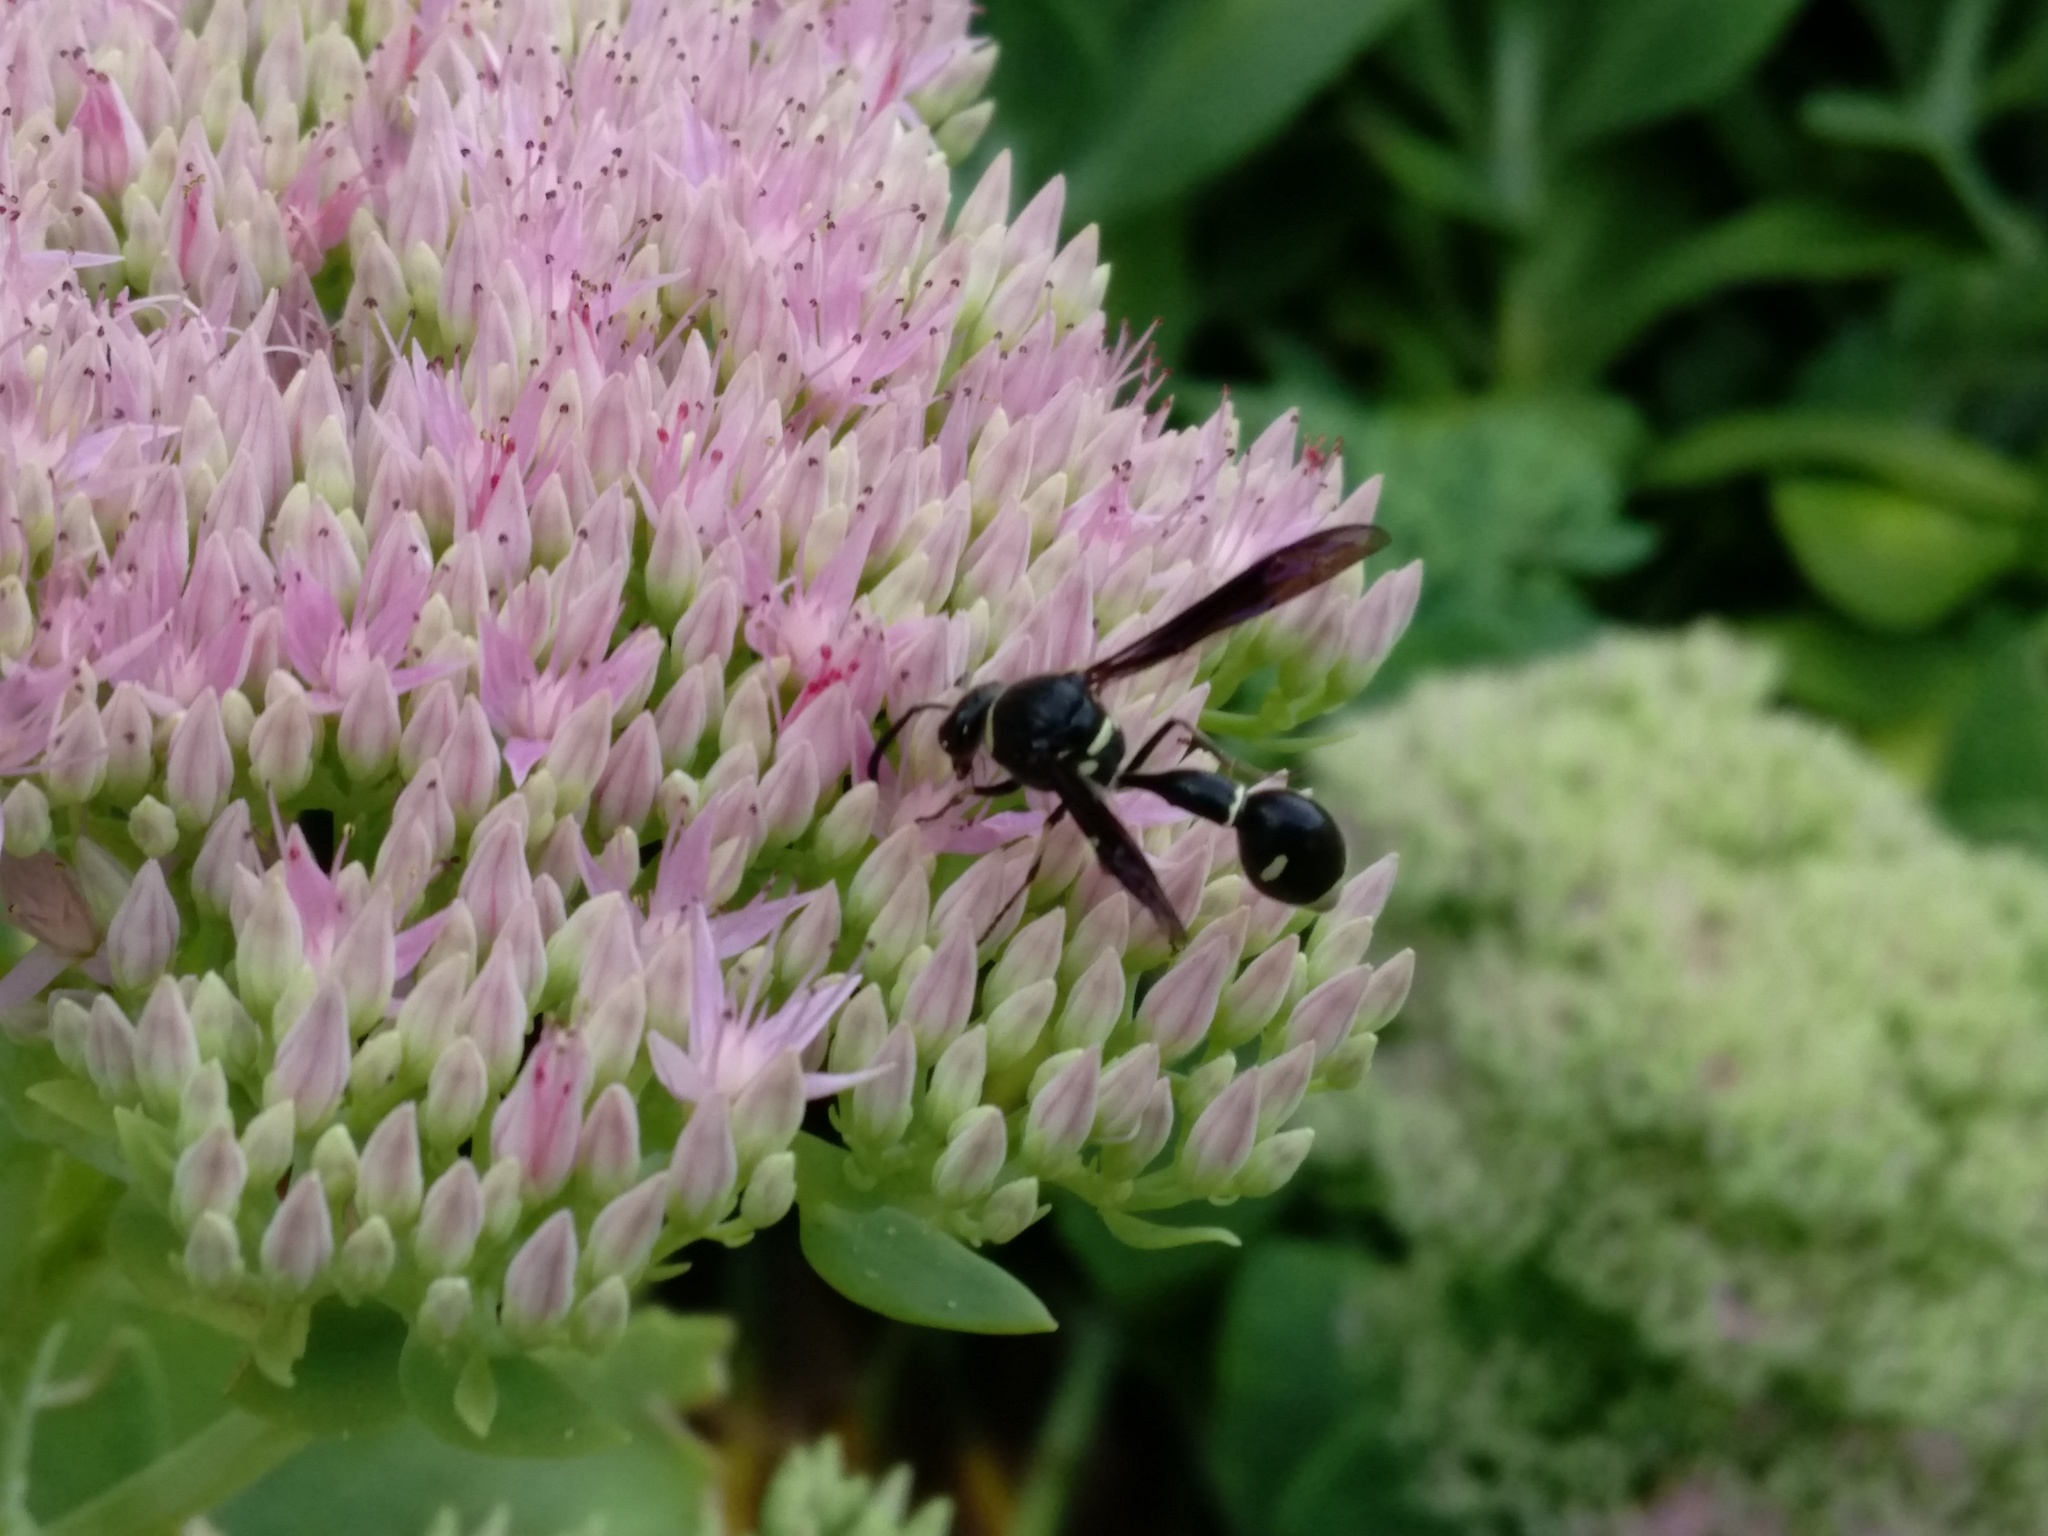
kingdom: Animalia
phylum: Arthropoda
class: Insecta
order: Hymenoptera
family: Vespidae
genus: Eumenes
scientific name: Eumenes fraternus
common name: Fraternal potter wasp
